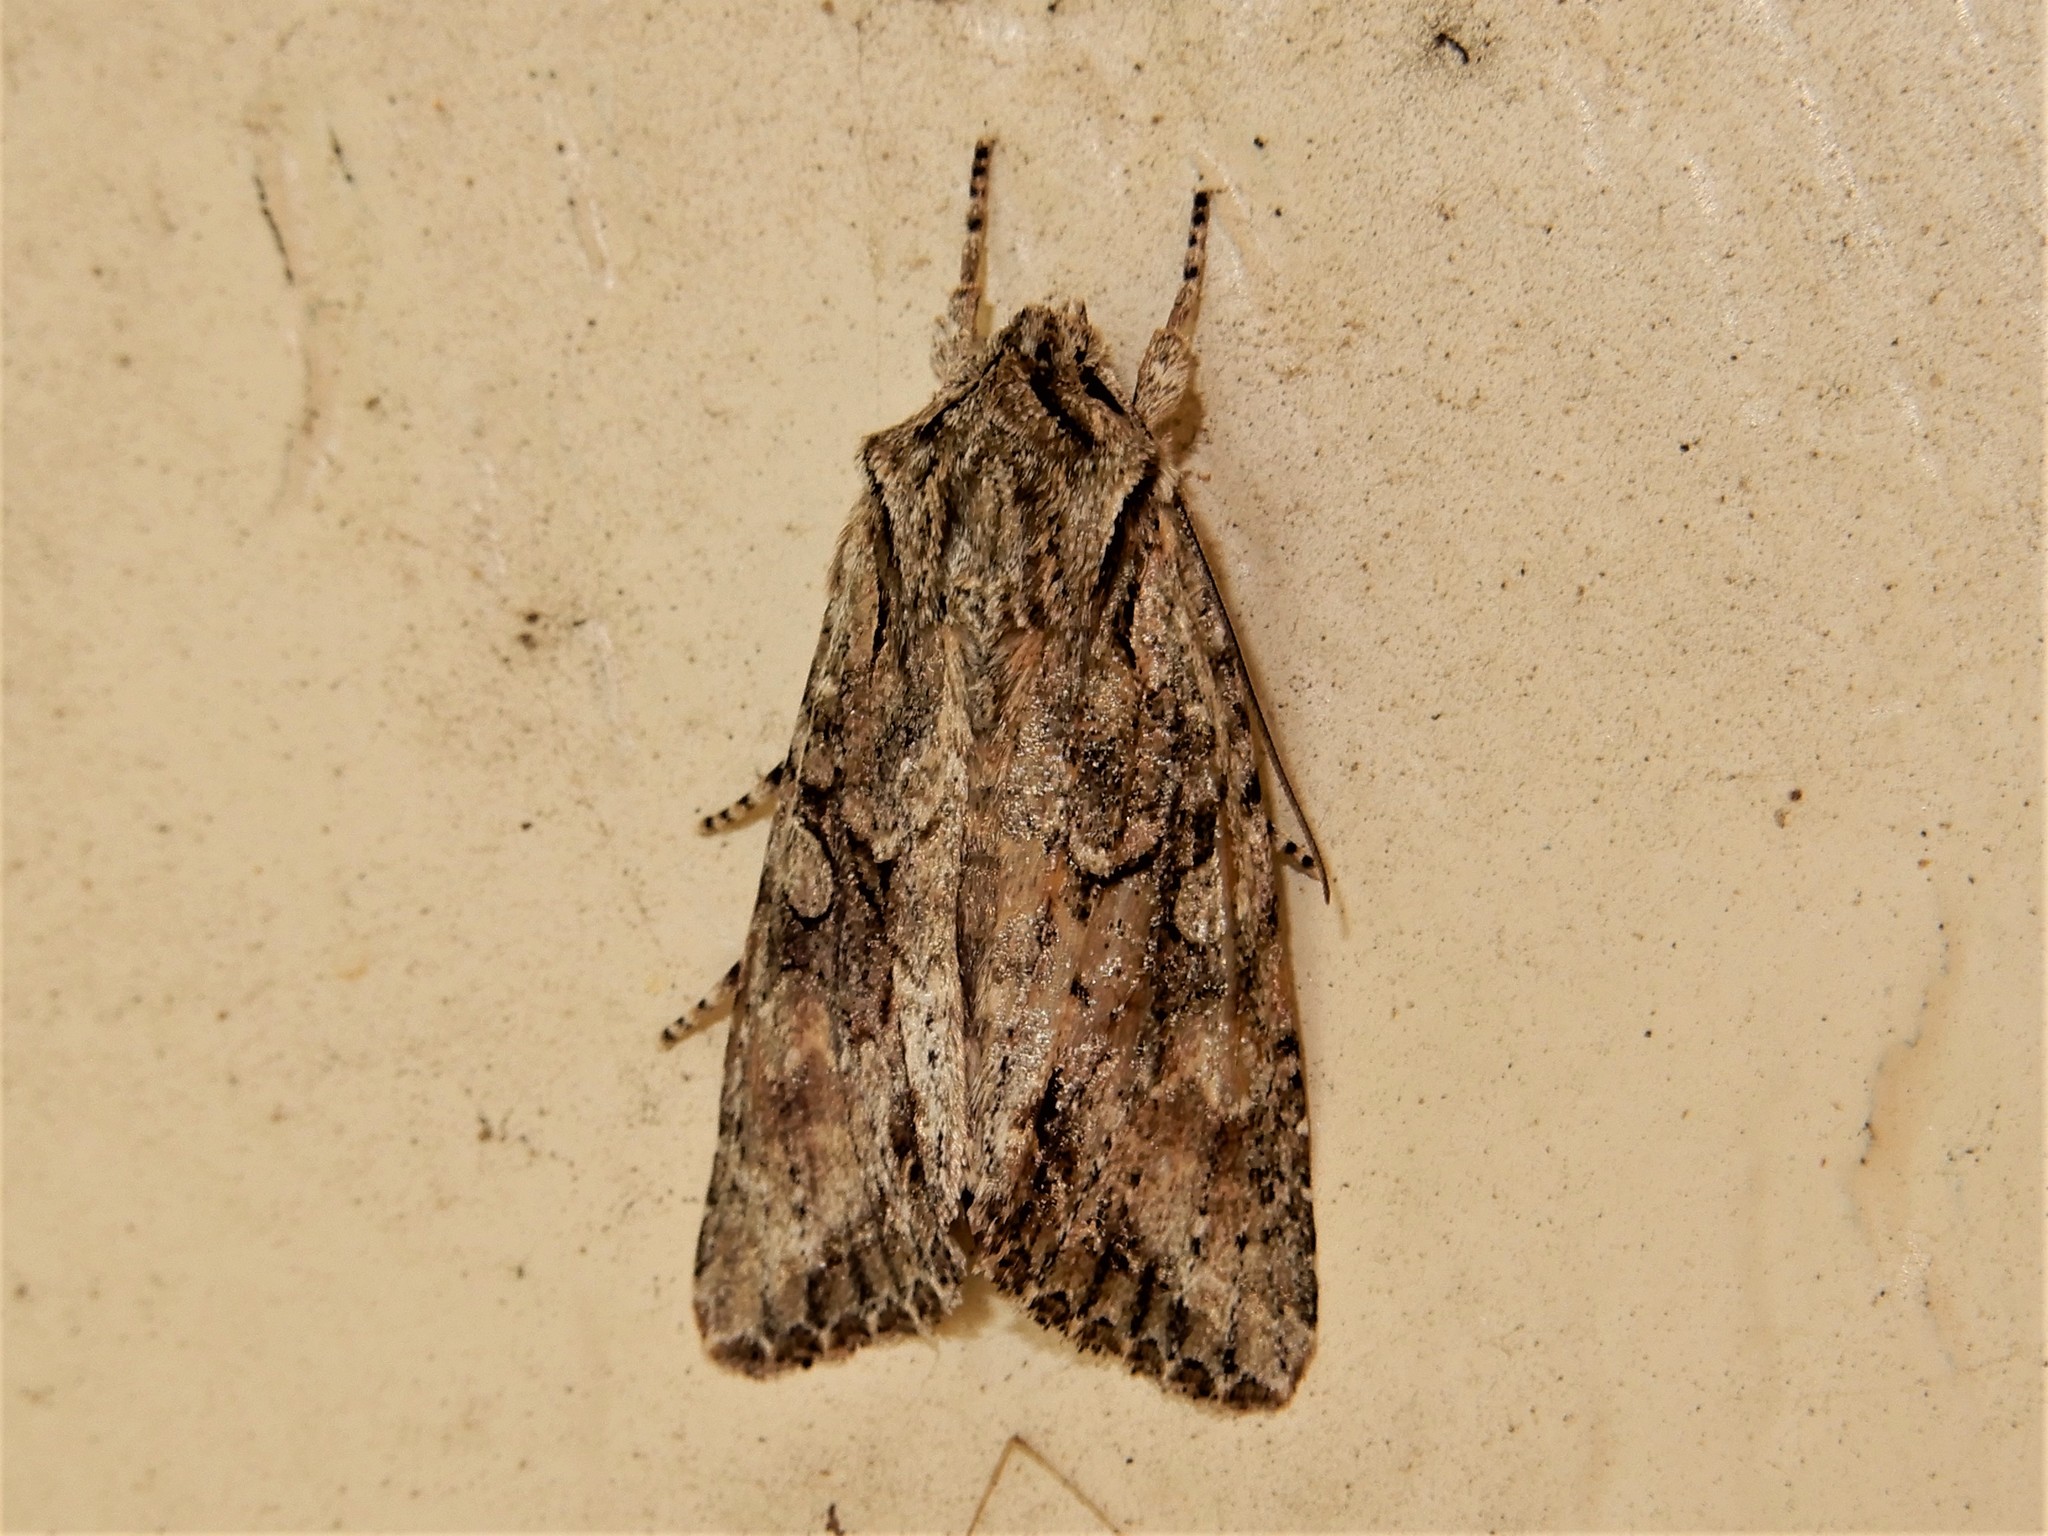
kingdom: Animalia
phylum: Arthropoda
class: Insecta
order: Lepidoptera
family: Noctuidae
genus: Ichneutica
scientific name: Ichneutica mutans
